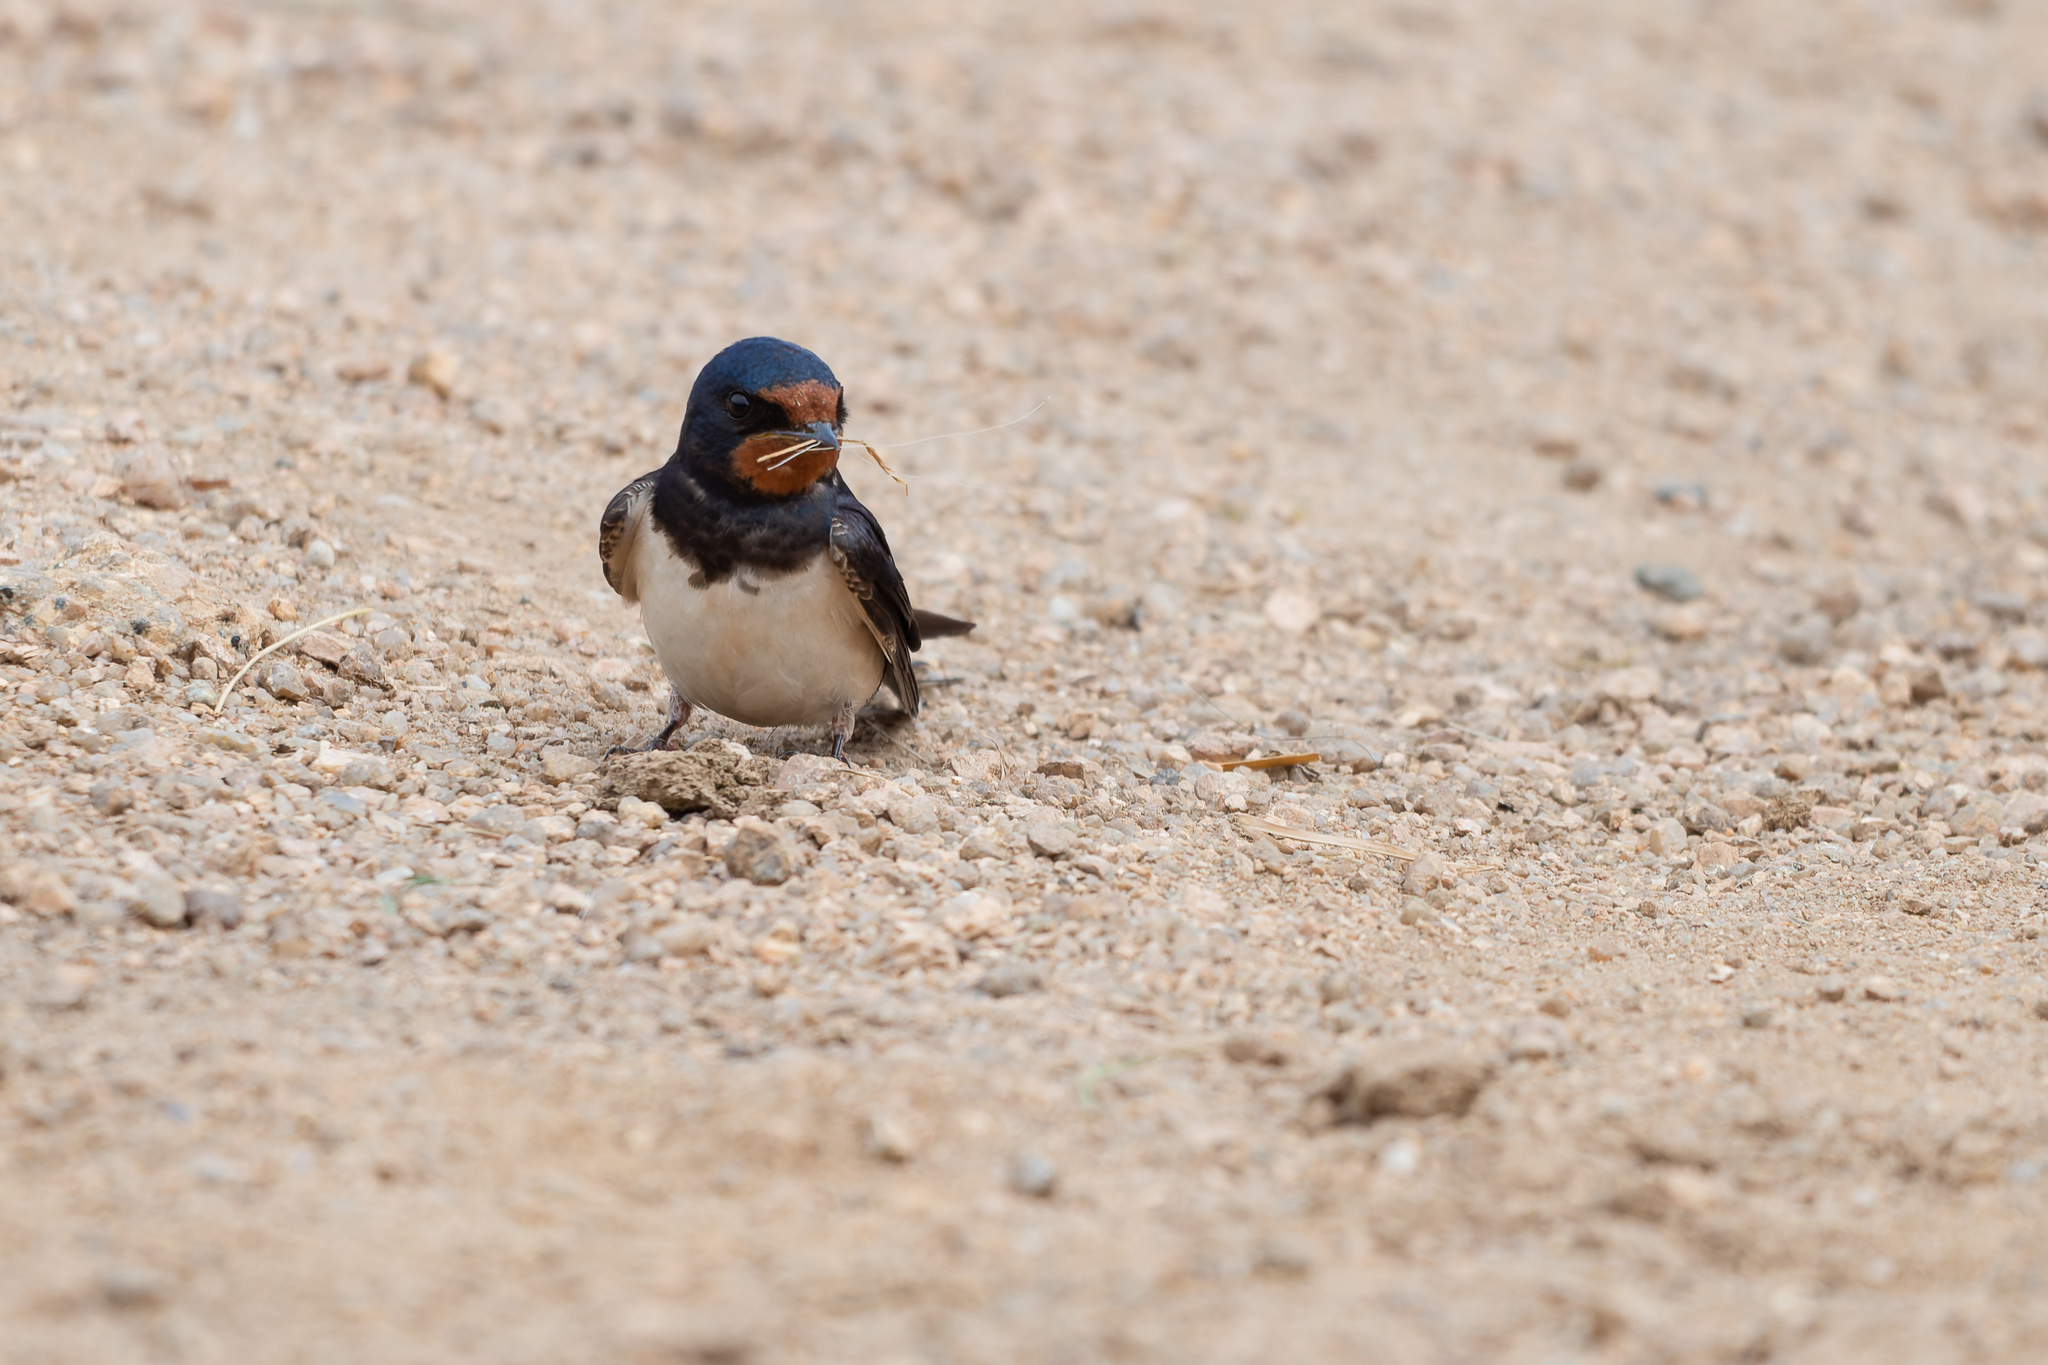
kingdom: Animalia
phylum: Chordata
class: Aves
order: Passeriformes
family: Hirundinidae
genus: Hirundo
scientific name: Hirundo rustica
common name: Barn swallow
